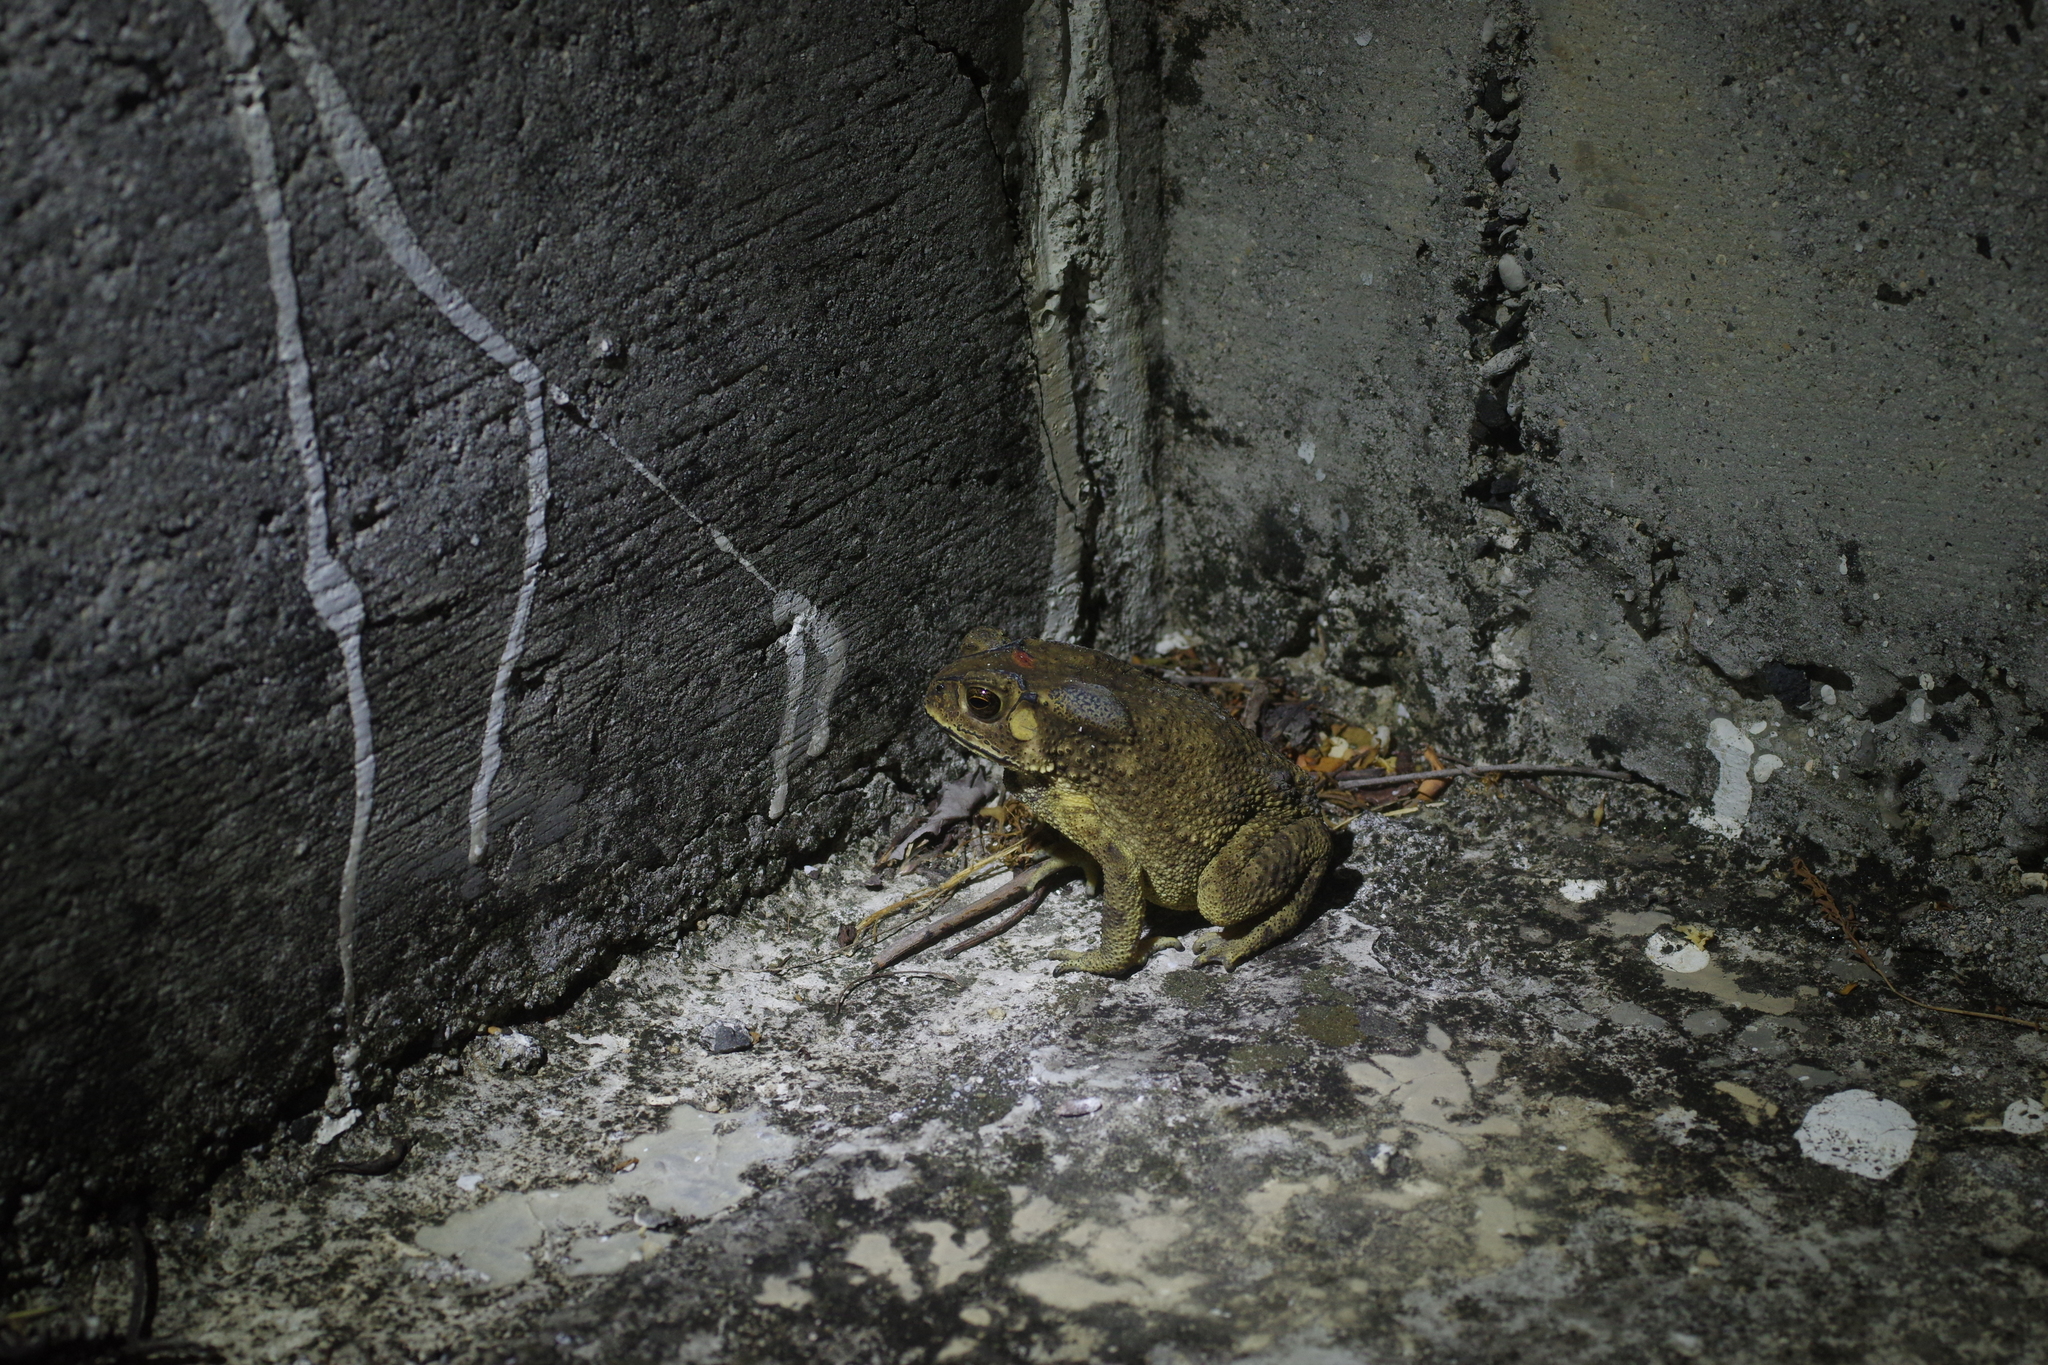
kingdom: Animalia
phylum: Chordata
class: Amphibia
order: Anura
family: Bufonidae
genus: Duttaphrynus
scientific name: Duttaphrynus melanostictus
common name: Common sunda toad
